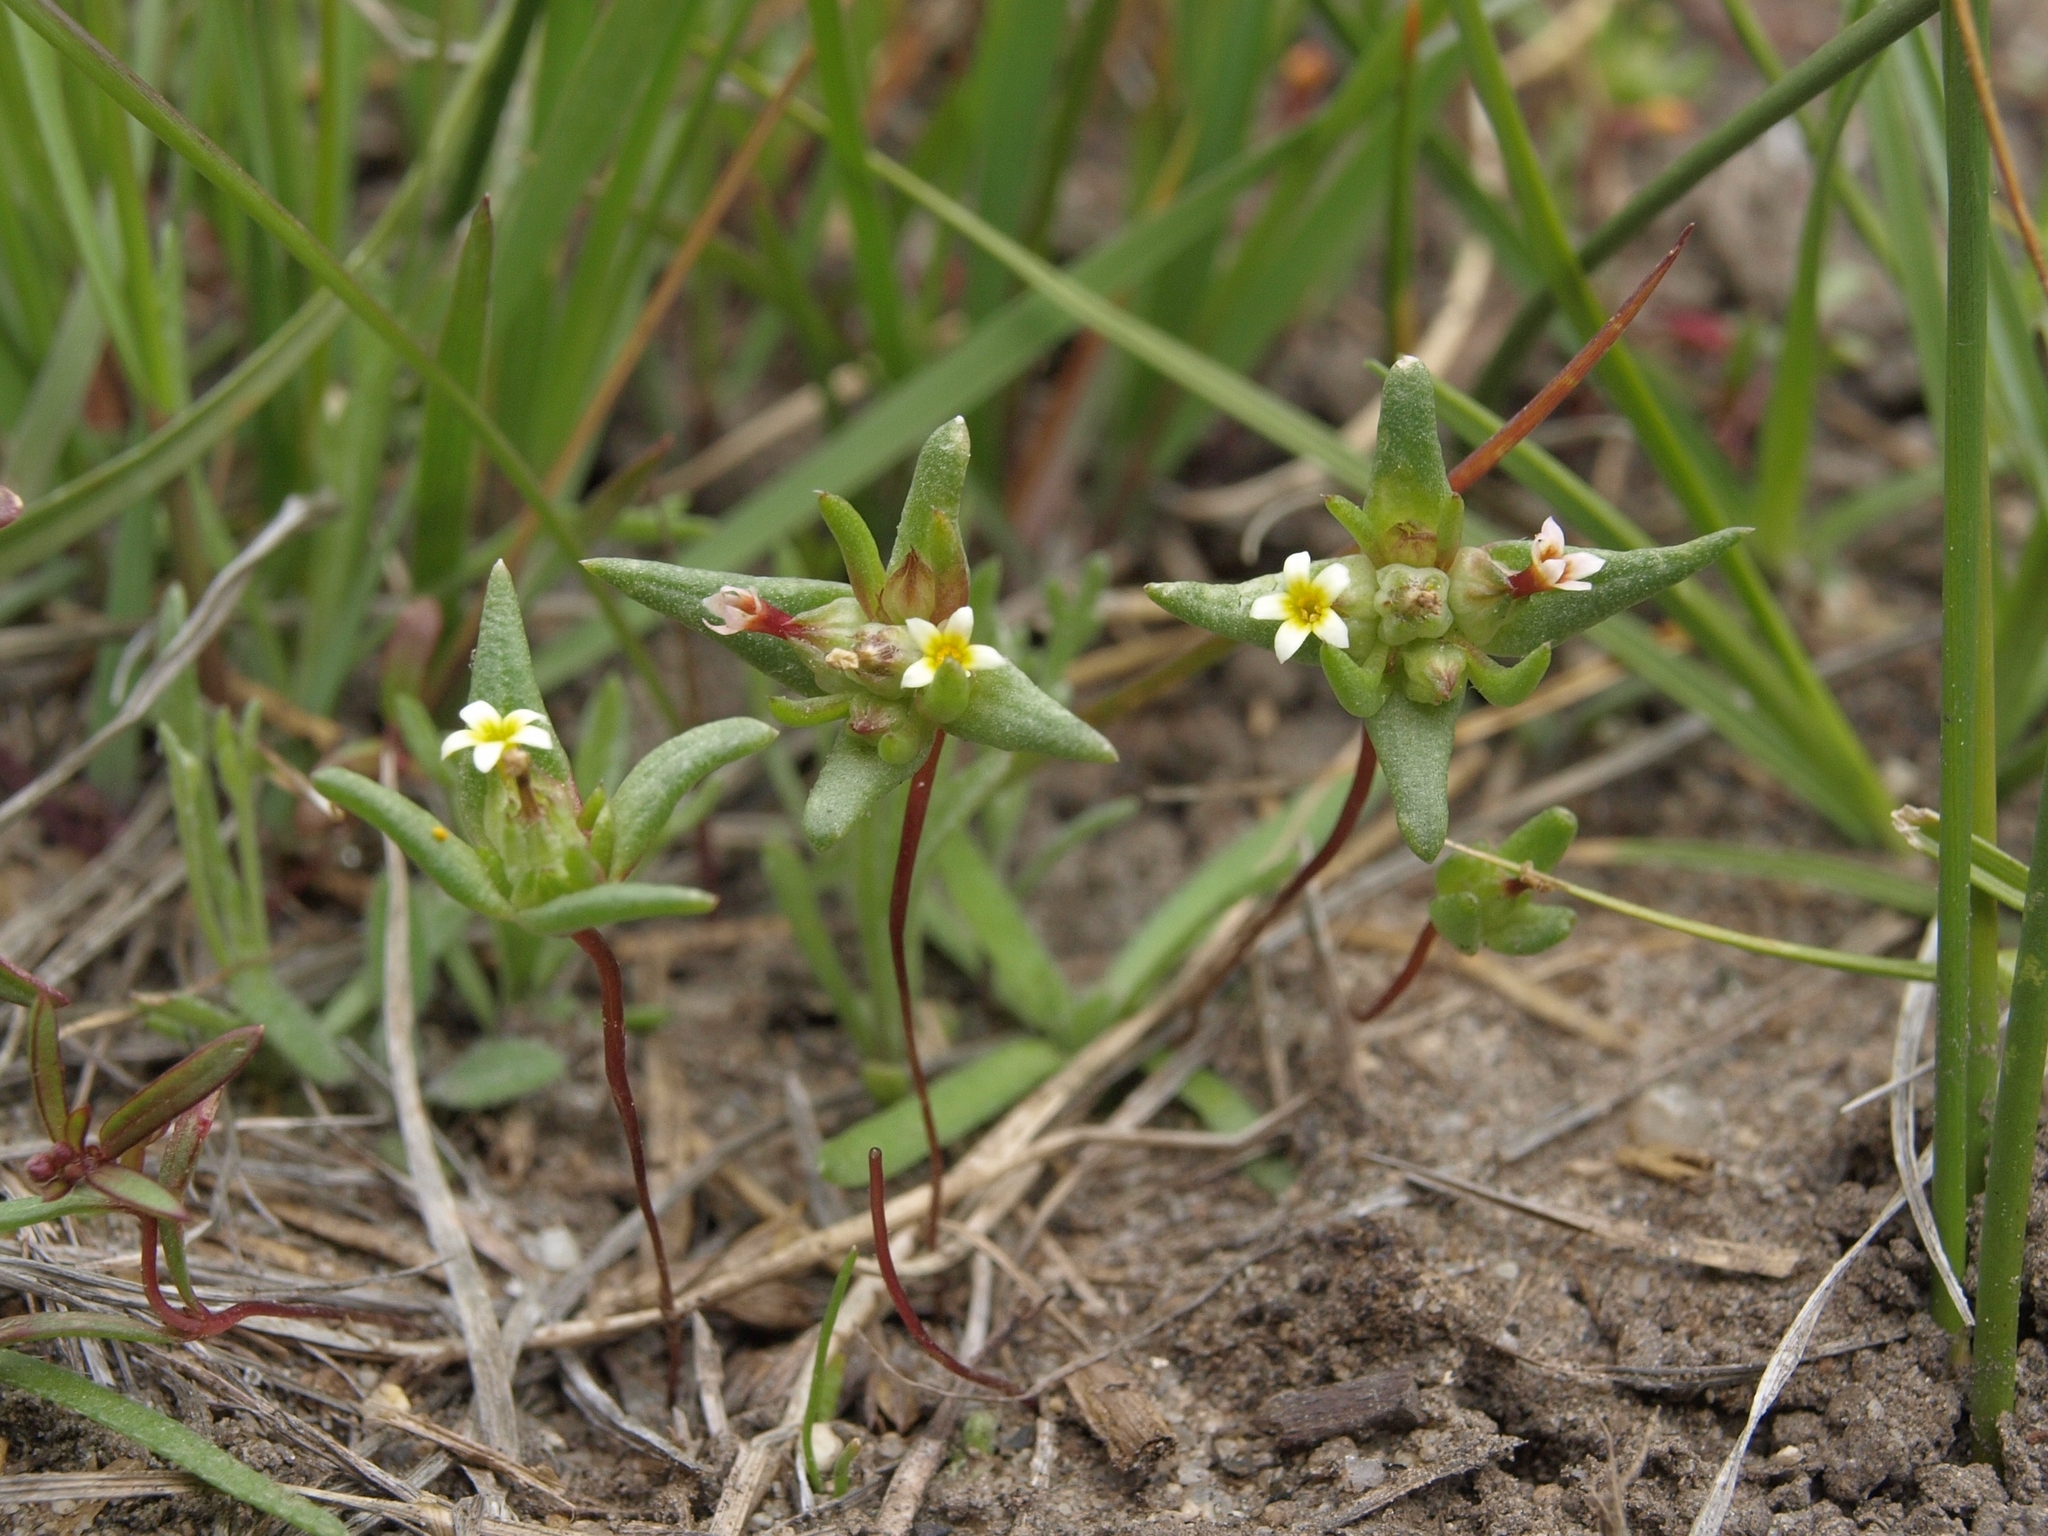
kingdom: Plantae
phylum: Tracheophyta
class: Magnoliopsida
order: Ericales
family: Polemoniaceae
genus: Gymnosteris
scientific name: Gymnosteris parvula
